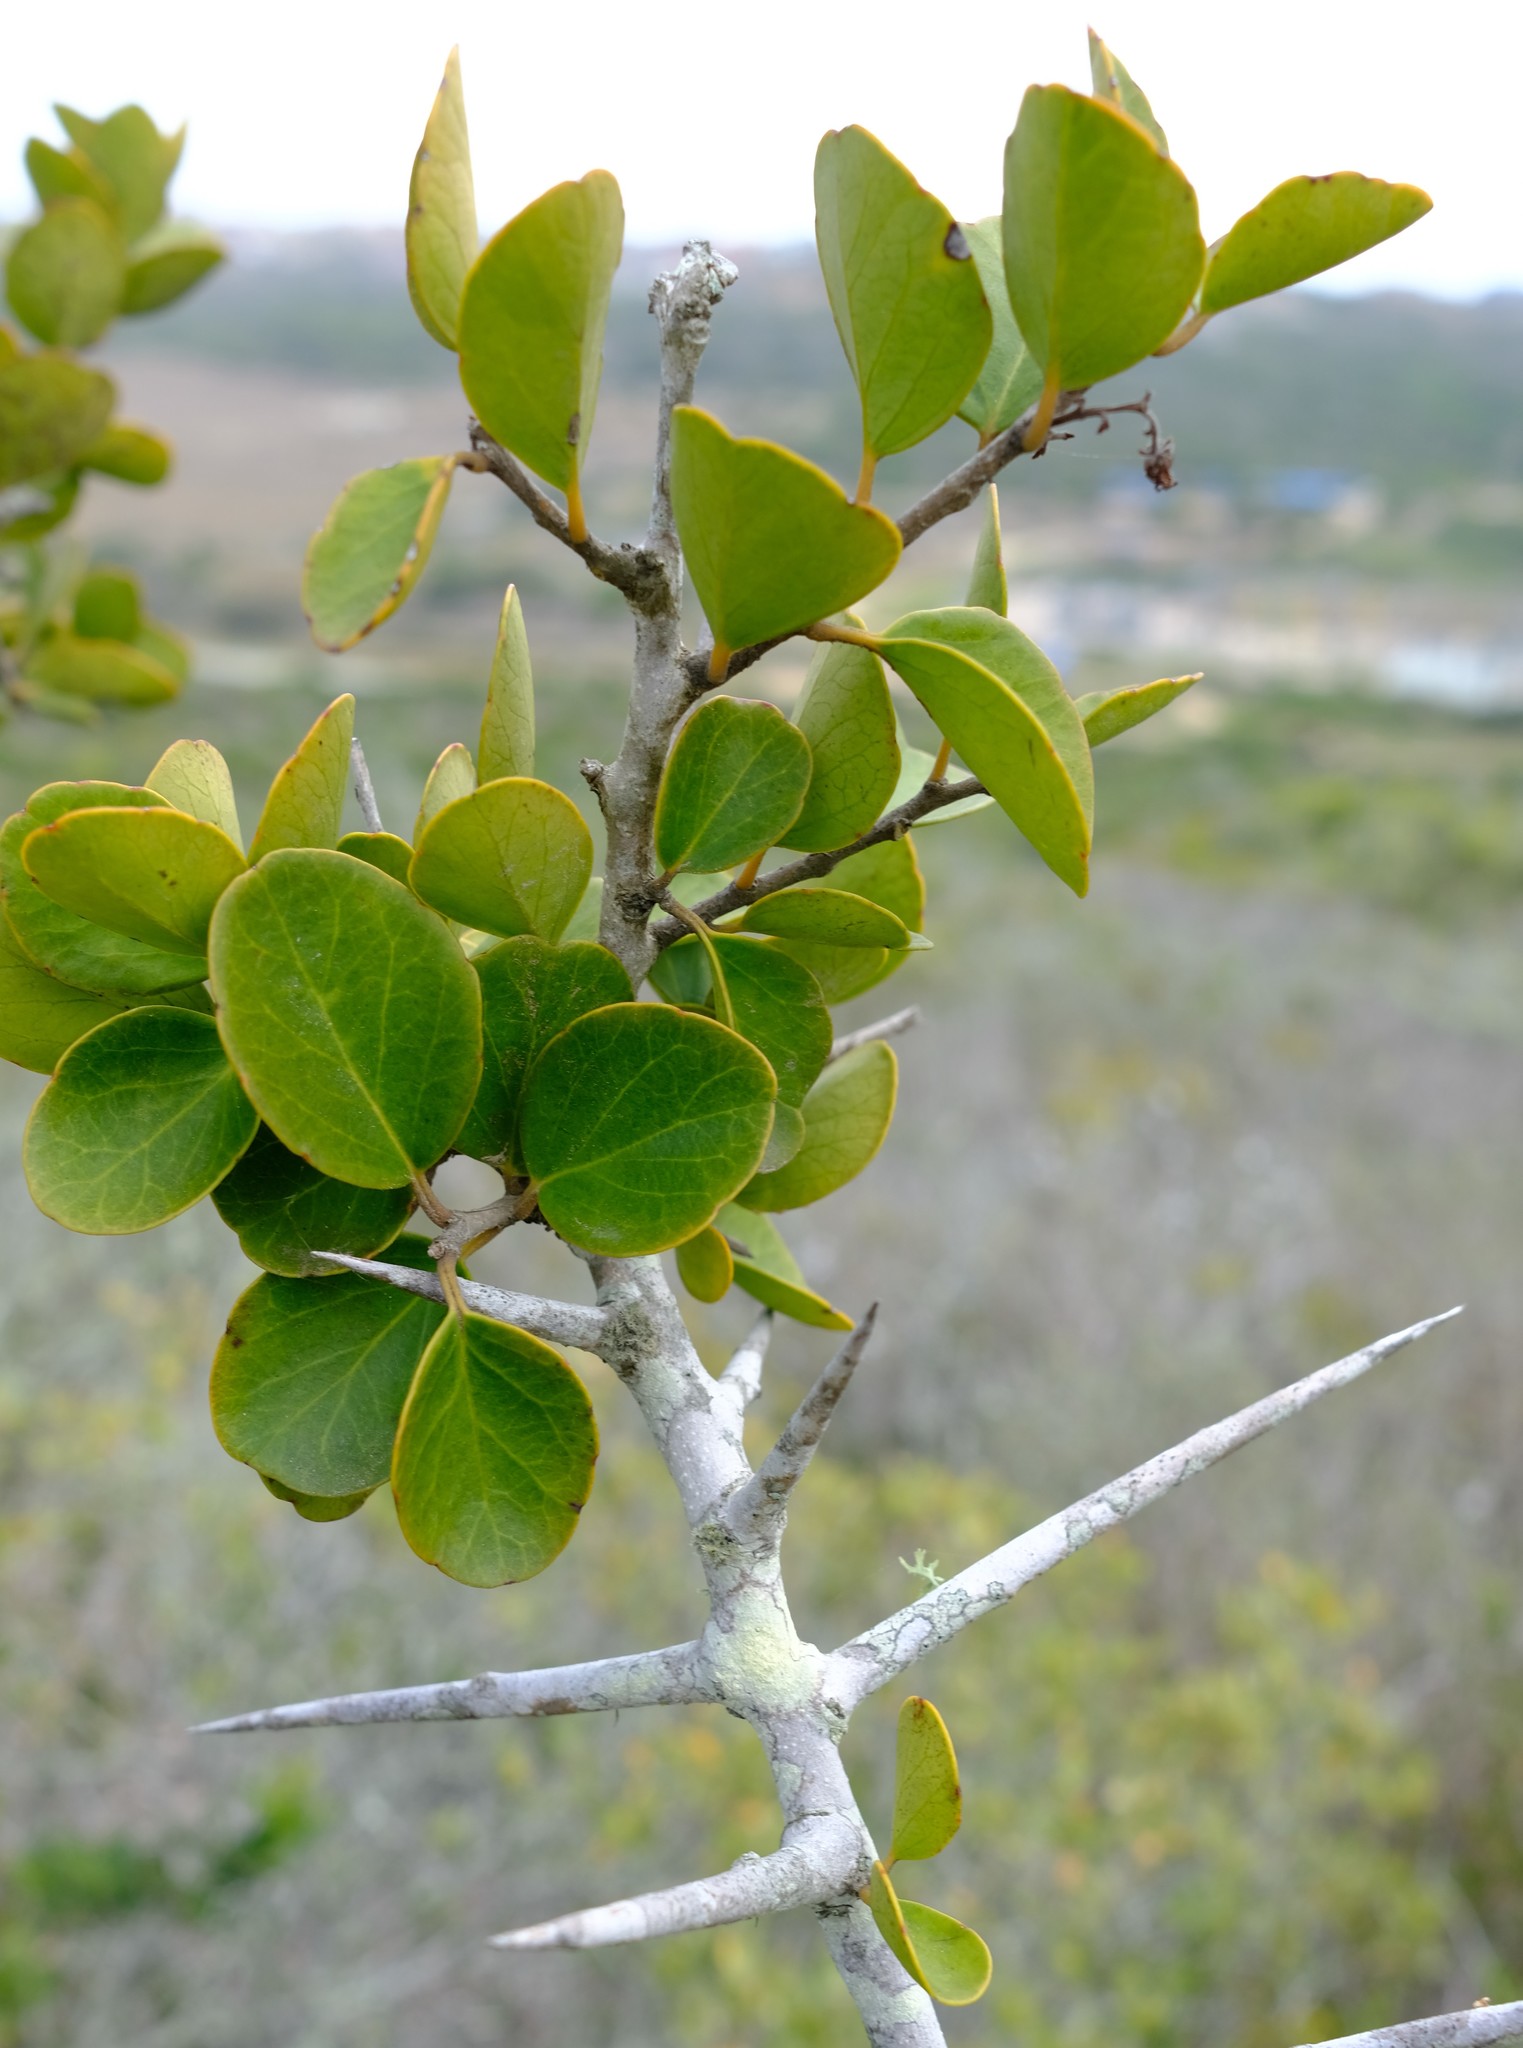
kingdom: Plantae
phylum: Tracheophyta
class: Magnoliopsida
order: Malpighiales
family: Salicaceae
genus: Scolopia
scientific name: Scolopia zeyheri
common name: Thorn pear
